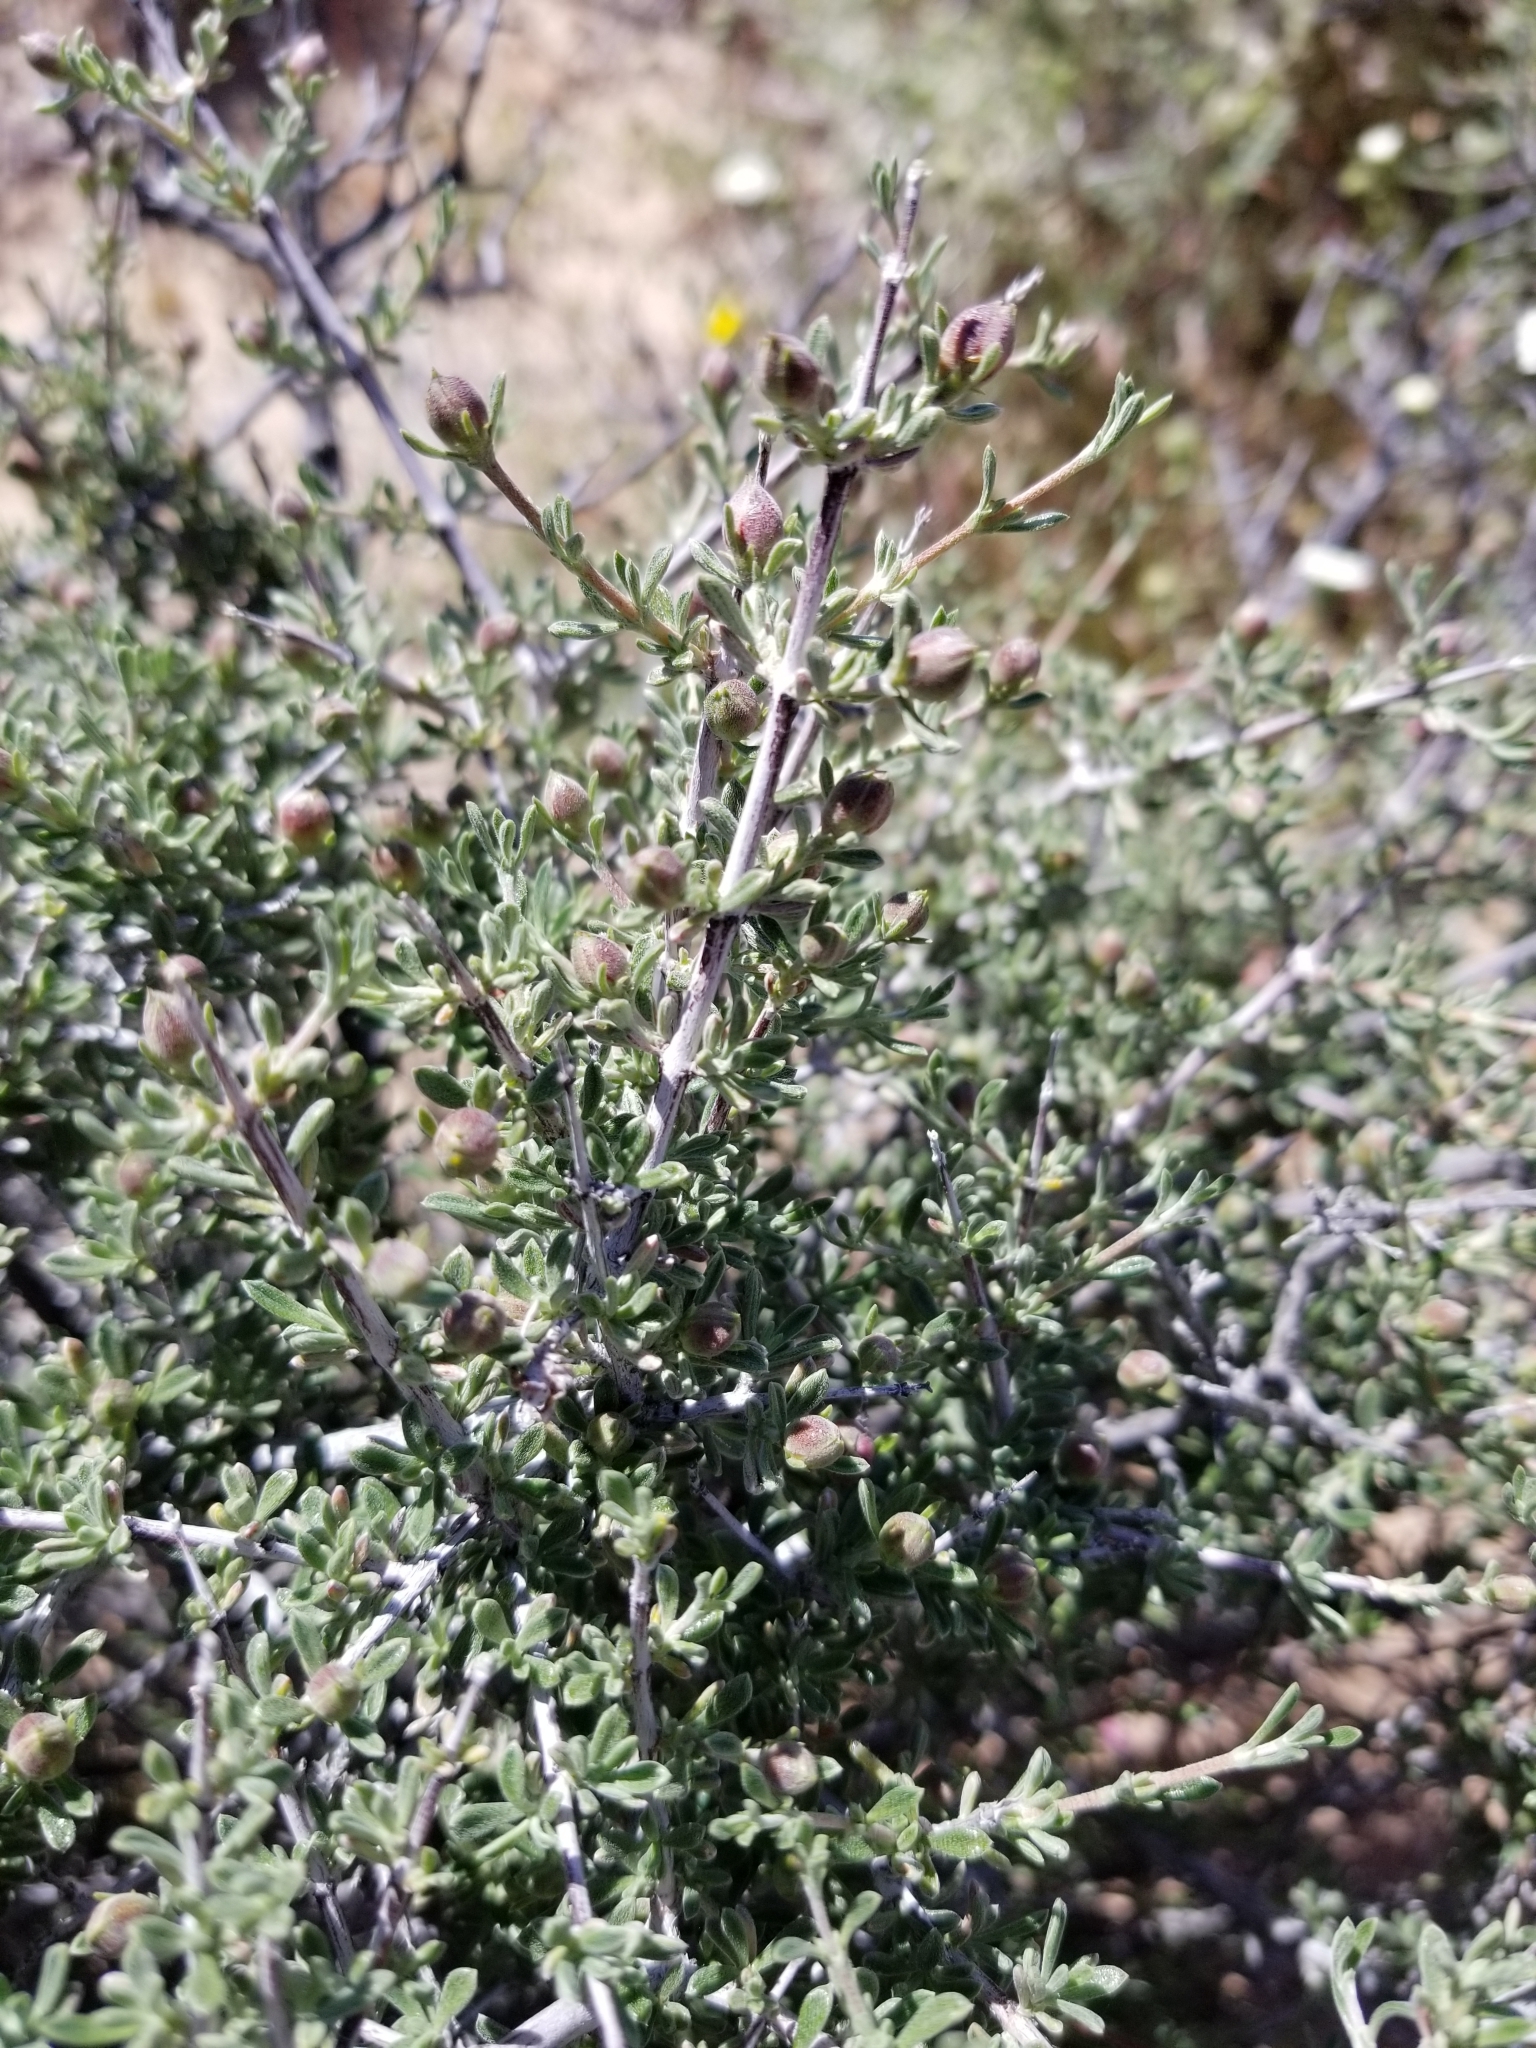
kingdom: Plantae
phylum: Tracheophyta
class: Magnoliopsida
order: Rosales
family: Rosaceae
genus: Coleogyne
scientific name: Coleogyne ramosissima
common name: Blackbrush
